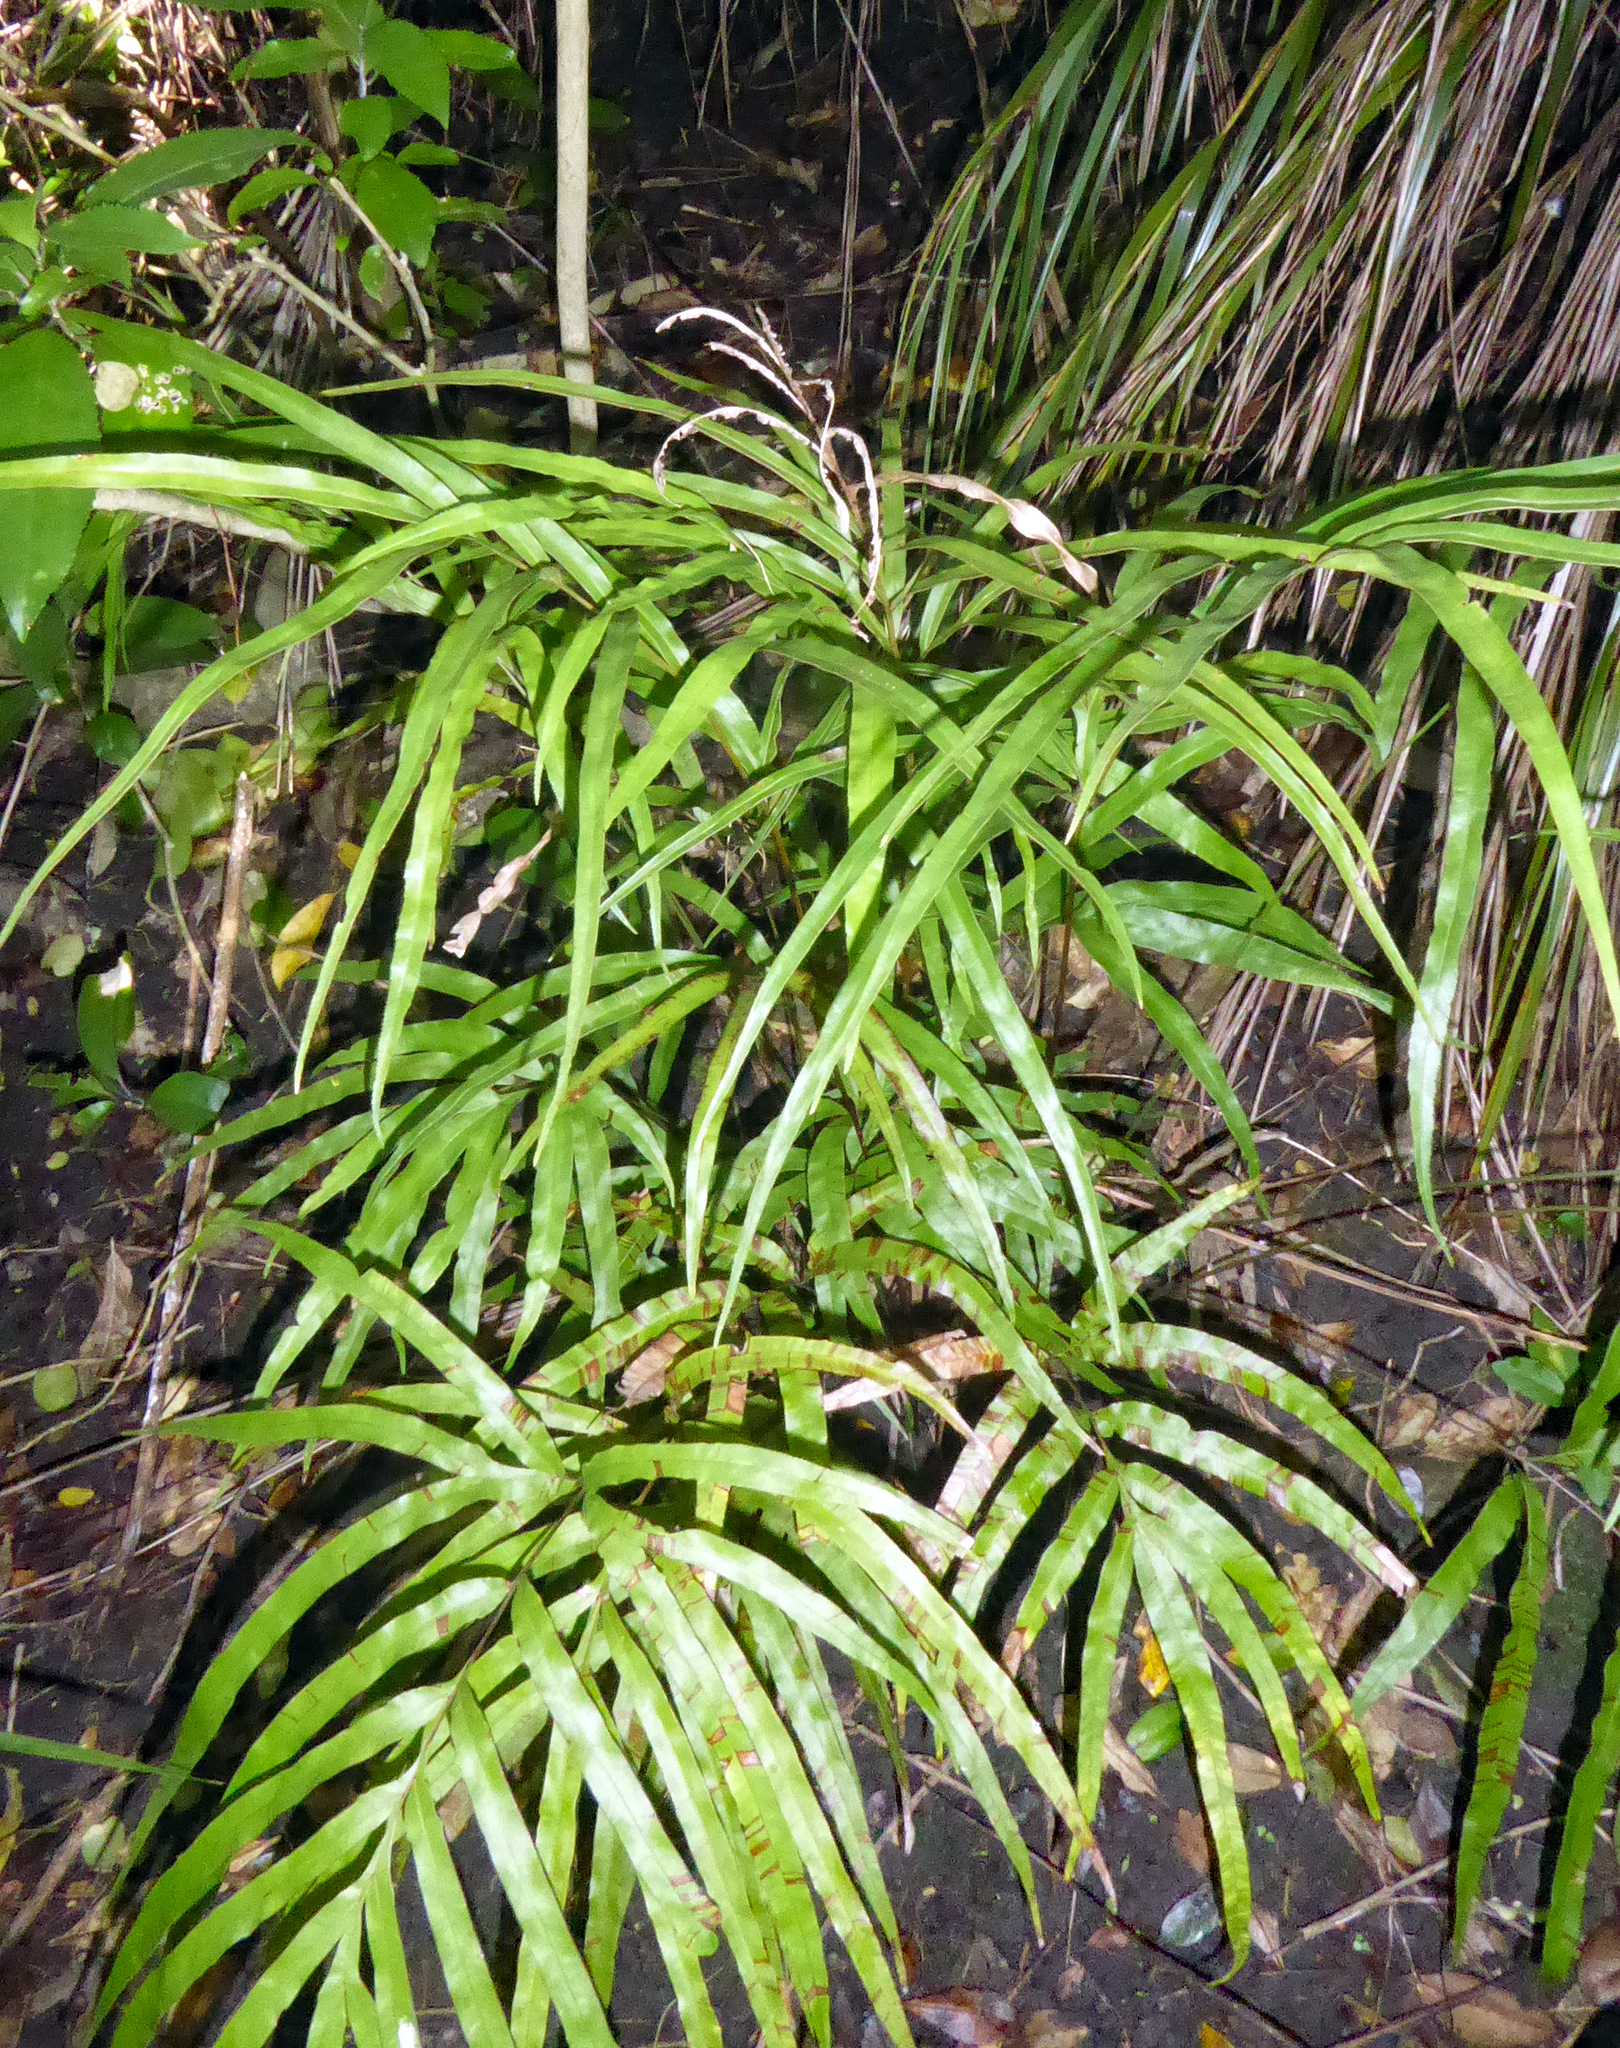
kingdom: Plantae
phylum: Tracheophyta
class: Polypodiopsida
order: Polypodiales
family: Pteridaceae
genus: Pteris
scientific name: Pteris cretica
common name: Ribbon fern
